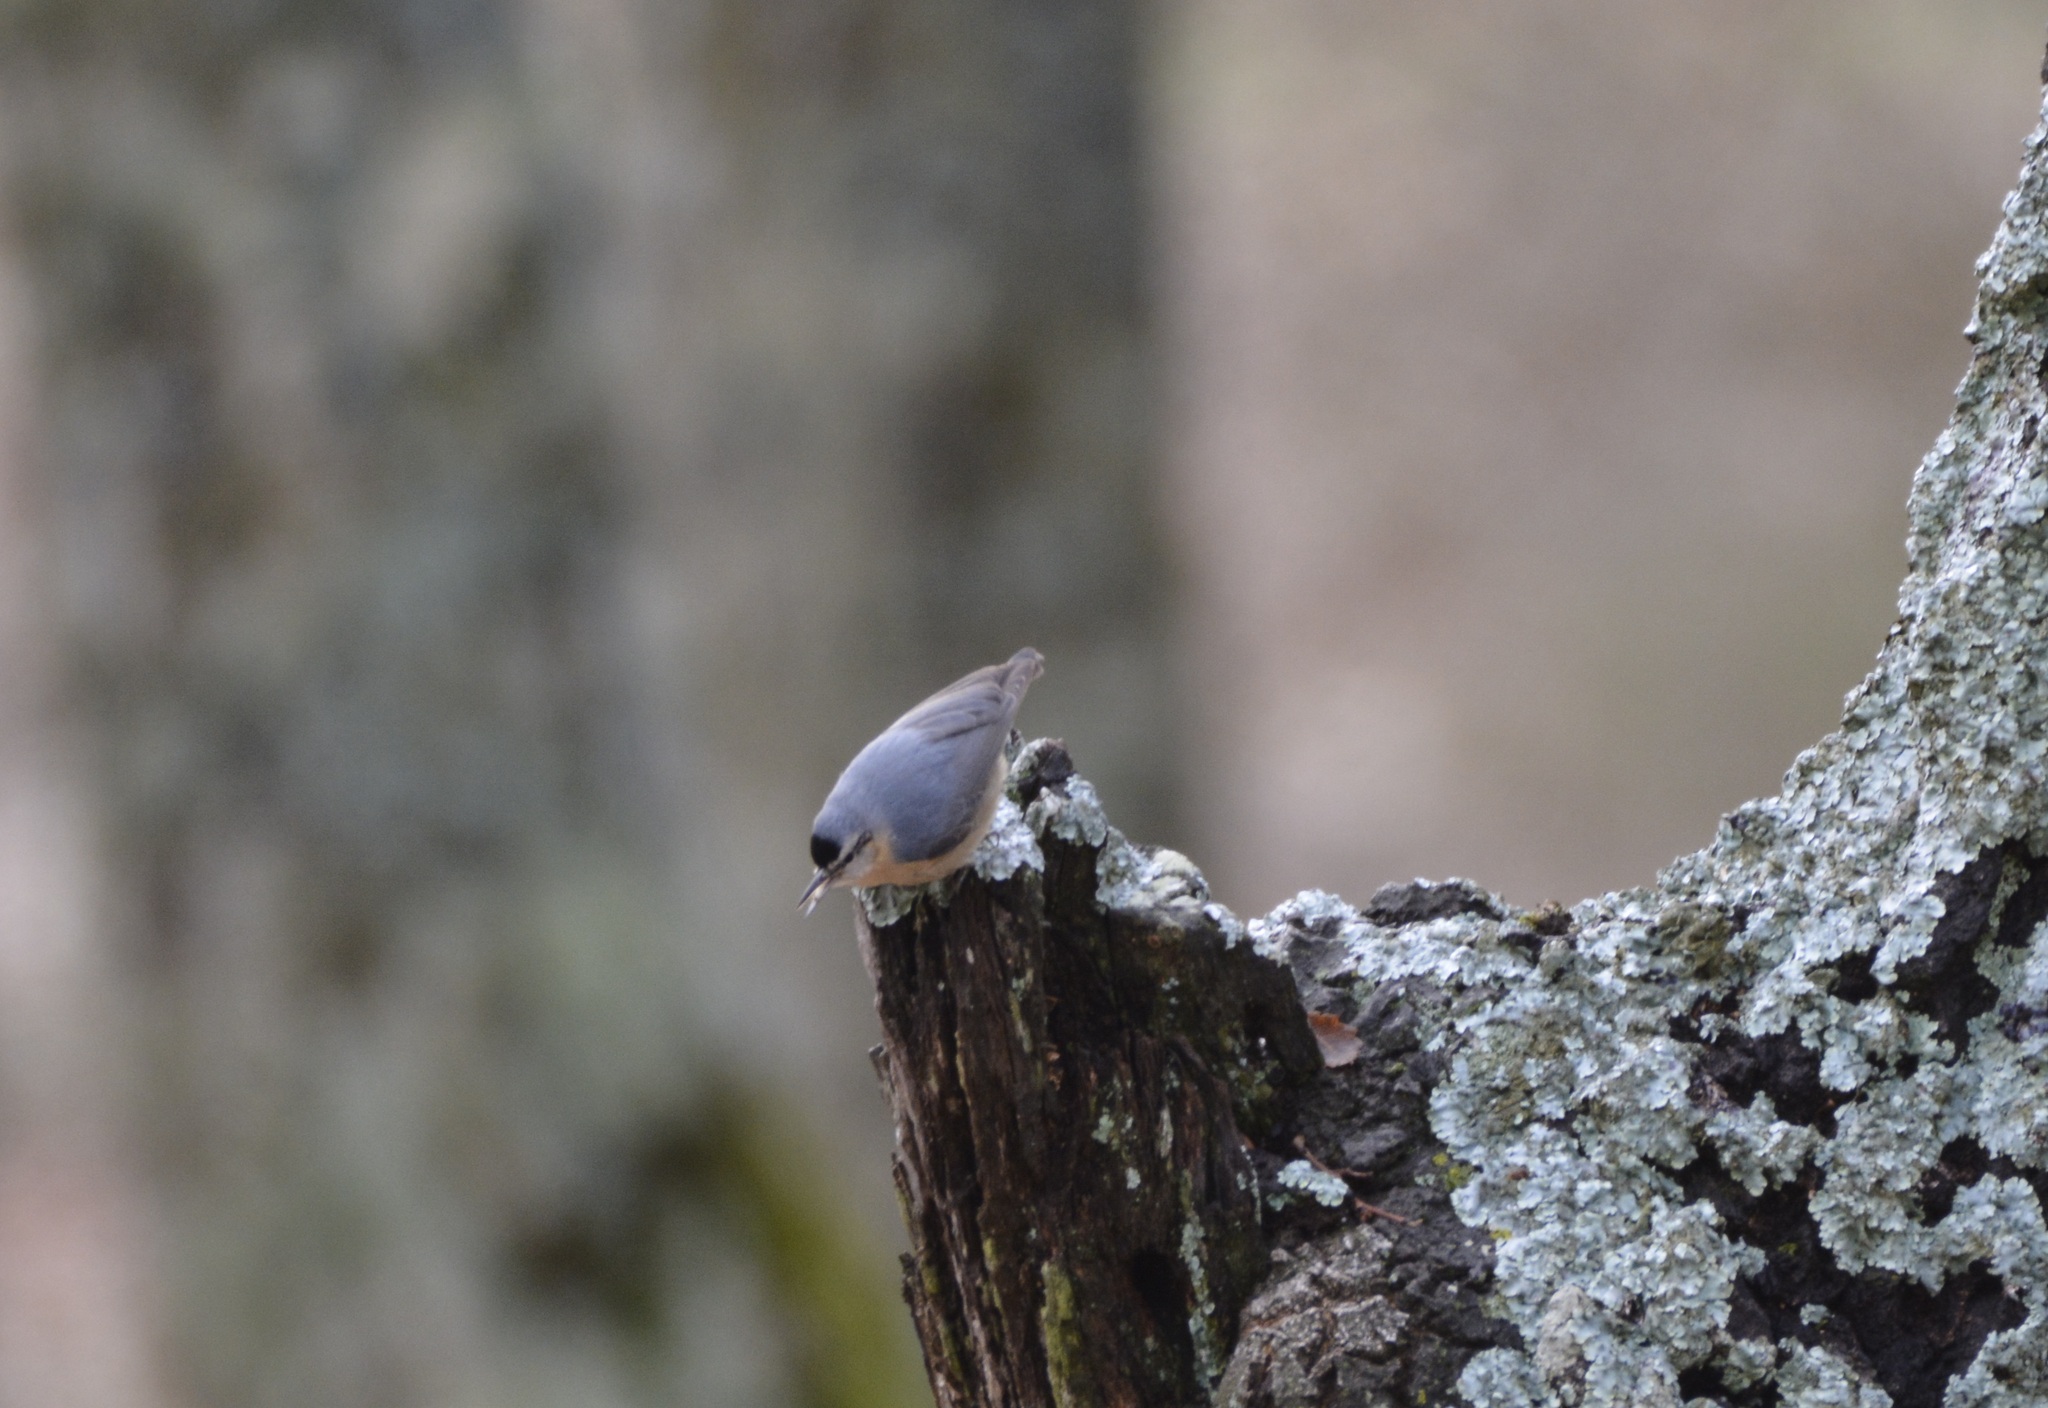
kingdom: Animalia
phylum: Chordata
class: Aves
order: Passeriformes
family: Sittidae
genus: Sitta
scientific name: Sitta ledanti
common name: Algerian nuthatch
